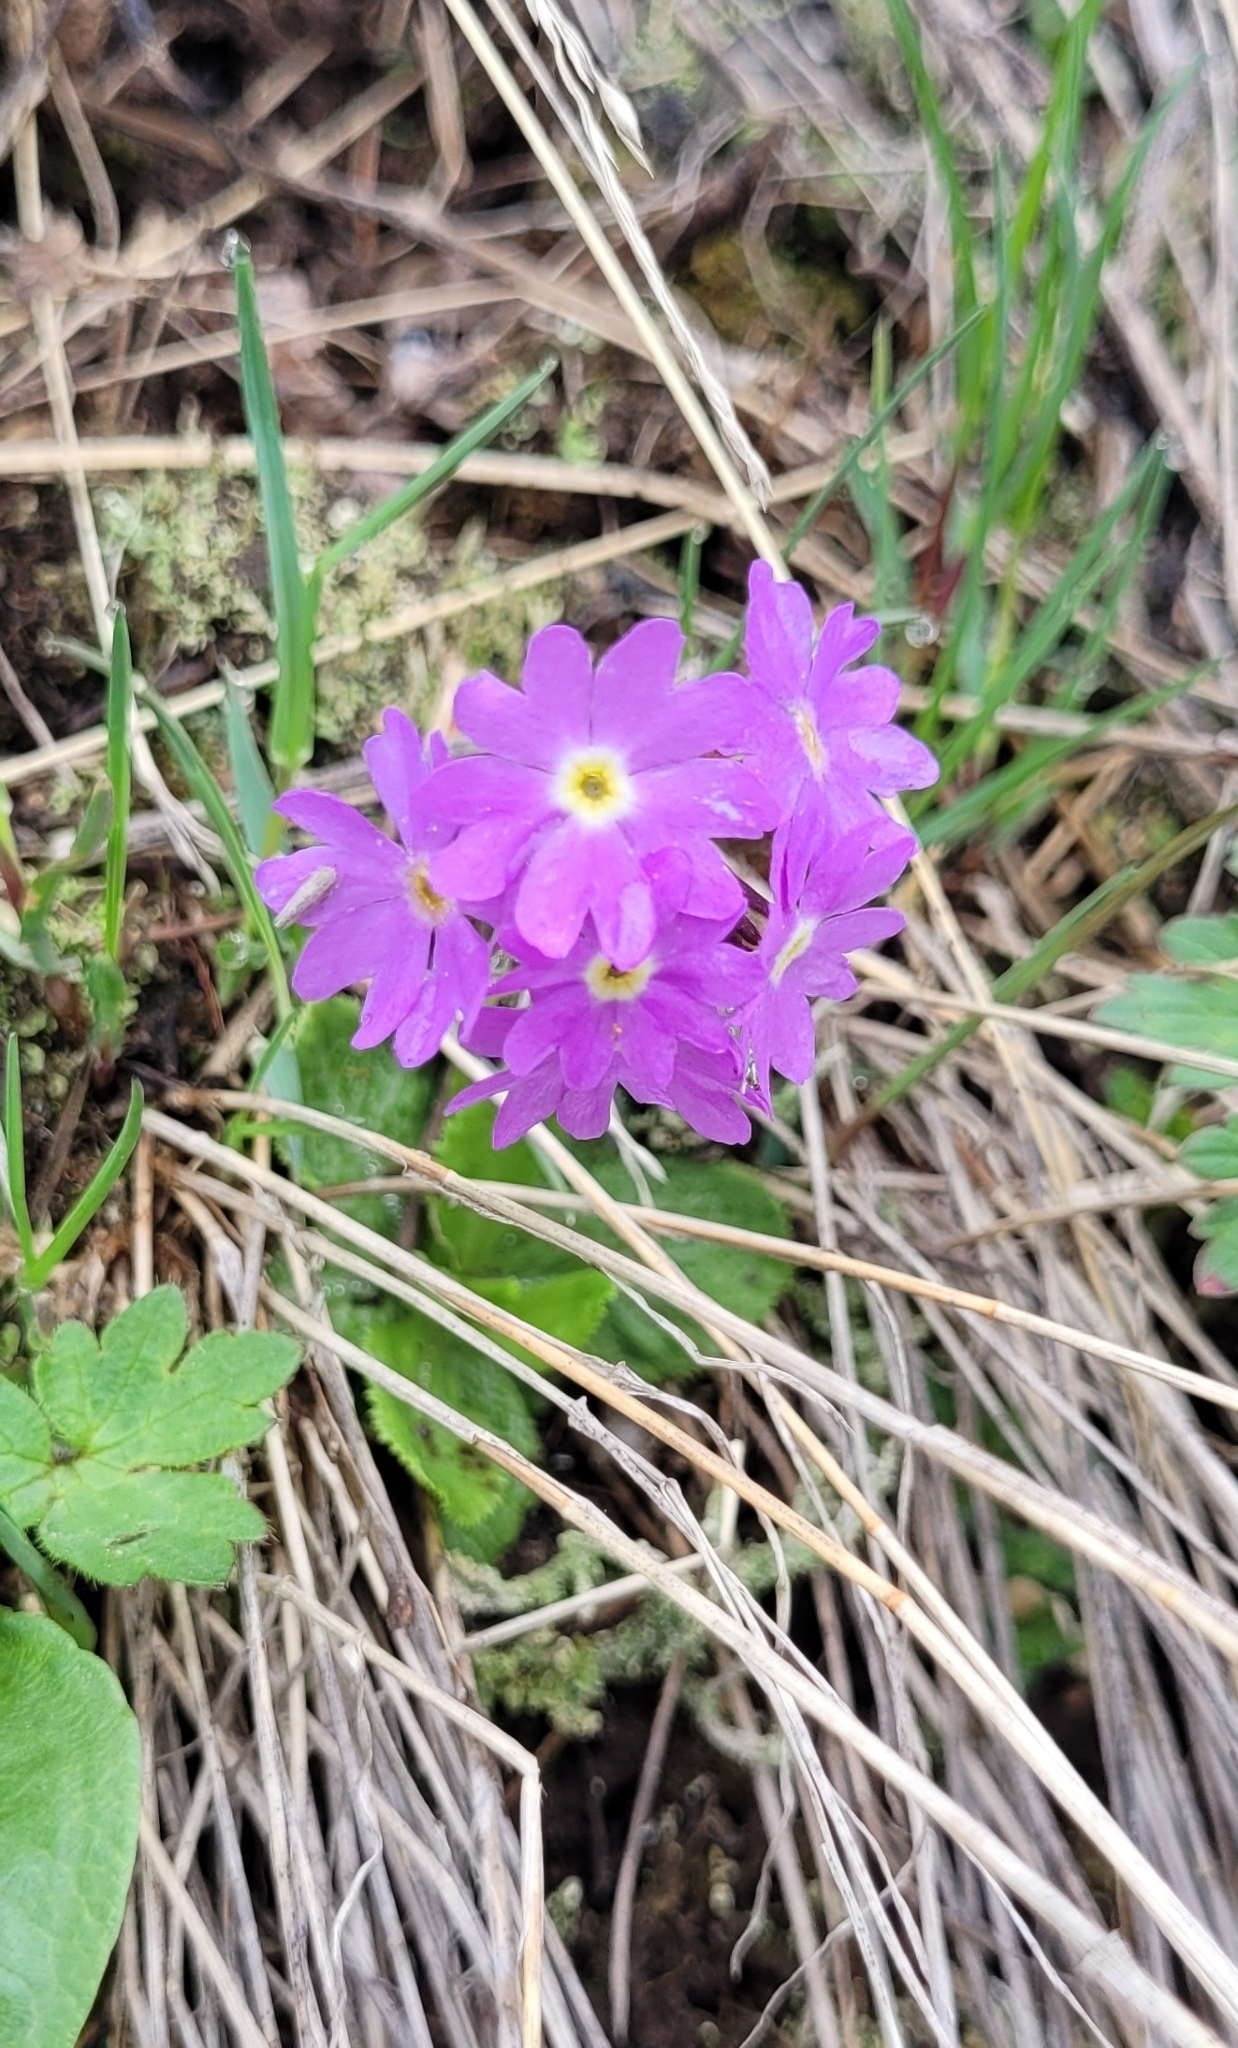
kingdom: Plantae
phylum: Tracheophyta
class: Magnoliopsida
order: Ericales
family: Primulaceae
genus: Primula
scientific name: Primula algida
